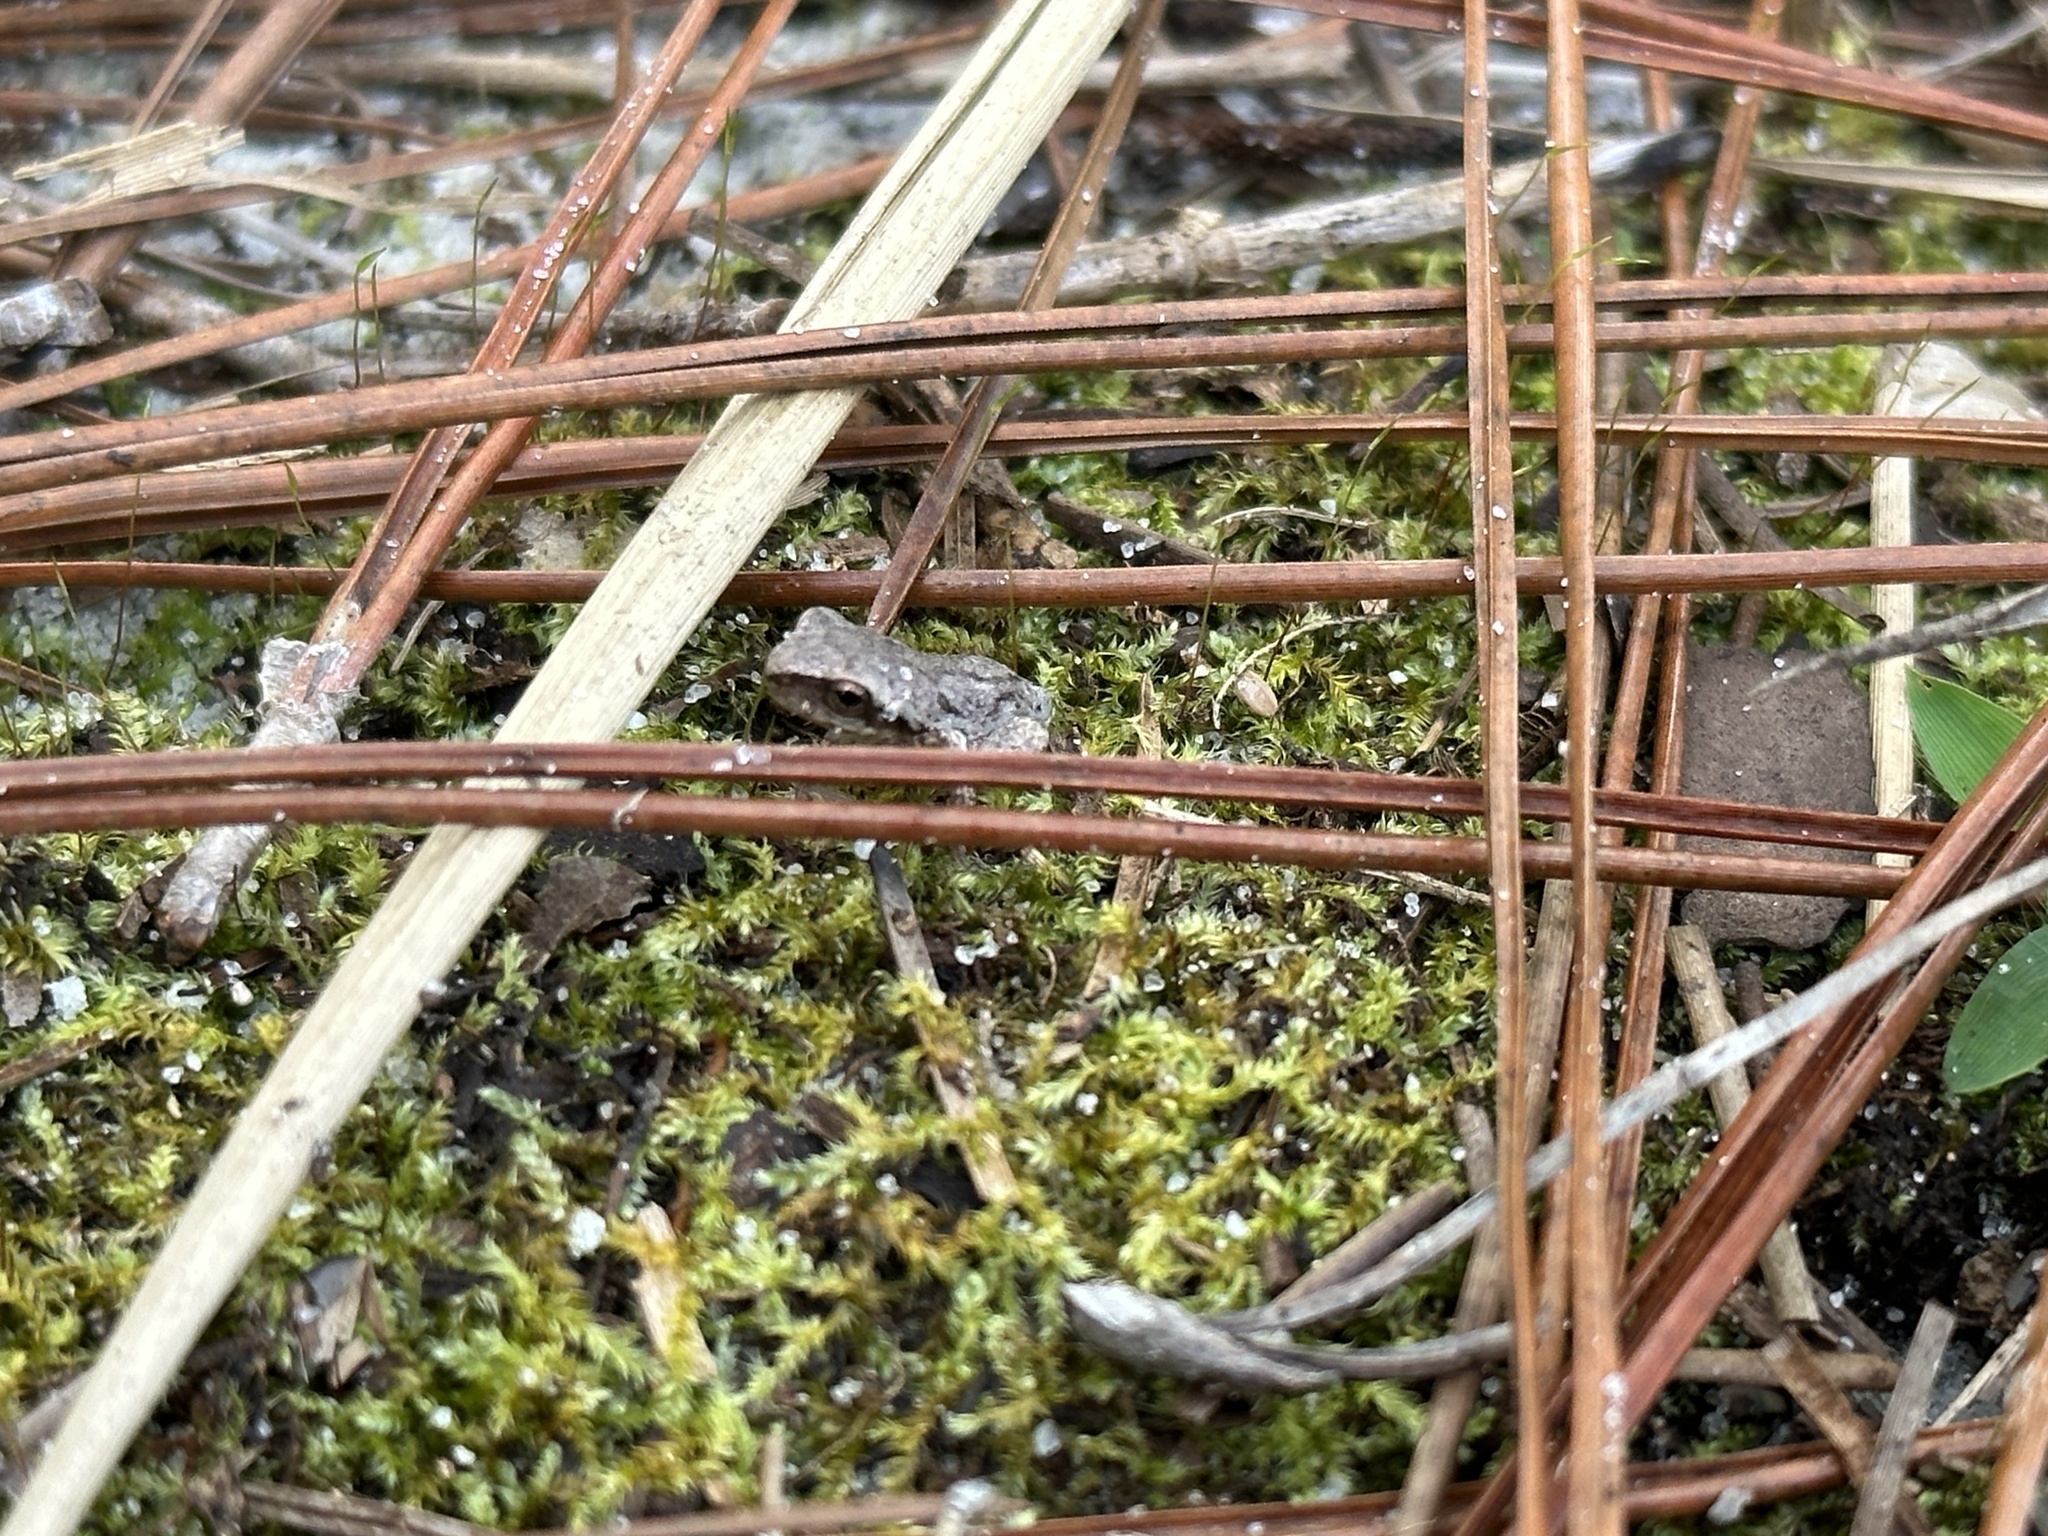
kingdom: Animalia
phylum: Chordata
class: Amphibia
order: Anura
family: Hylidae
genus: Hyla
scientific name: Hyla femoralis
